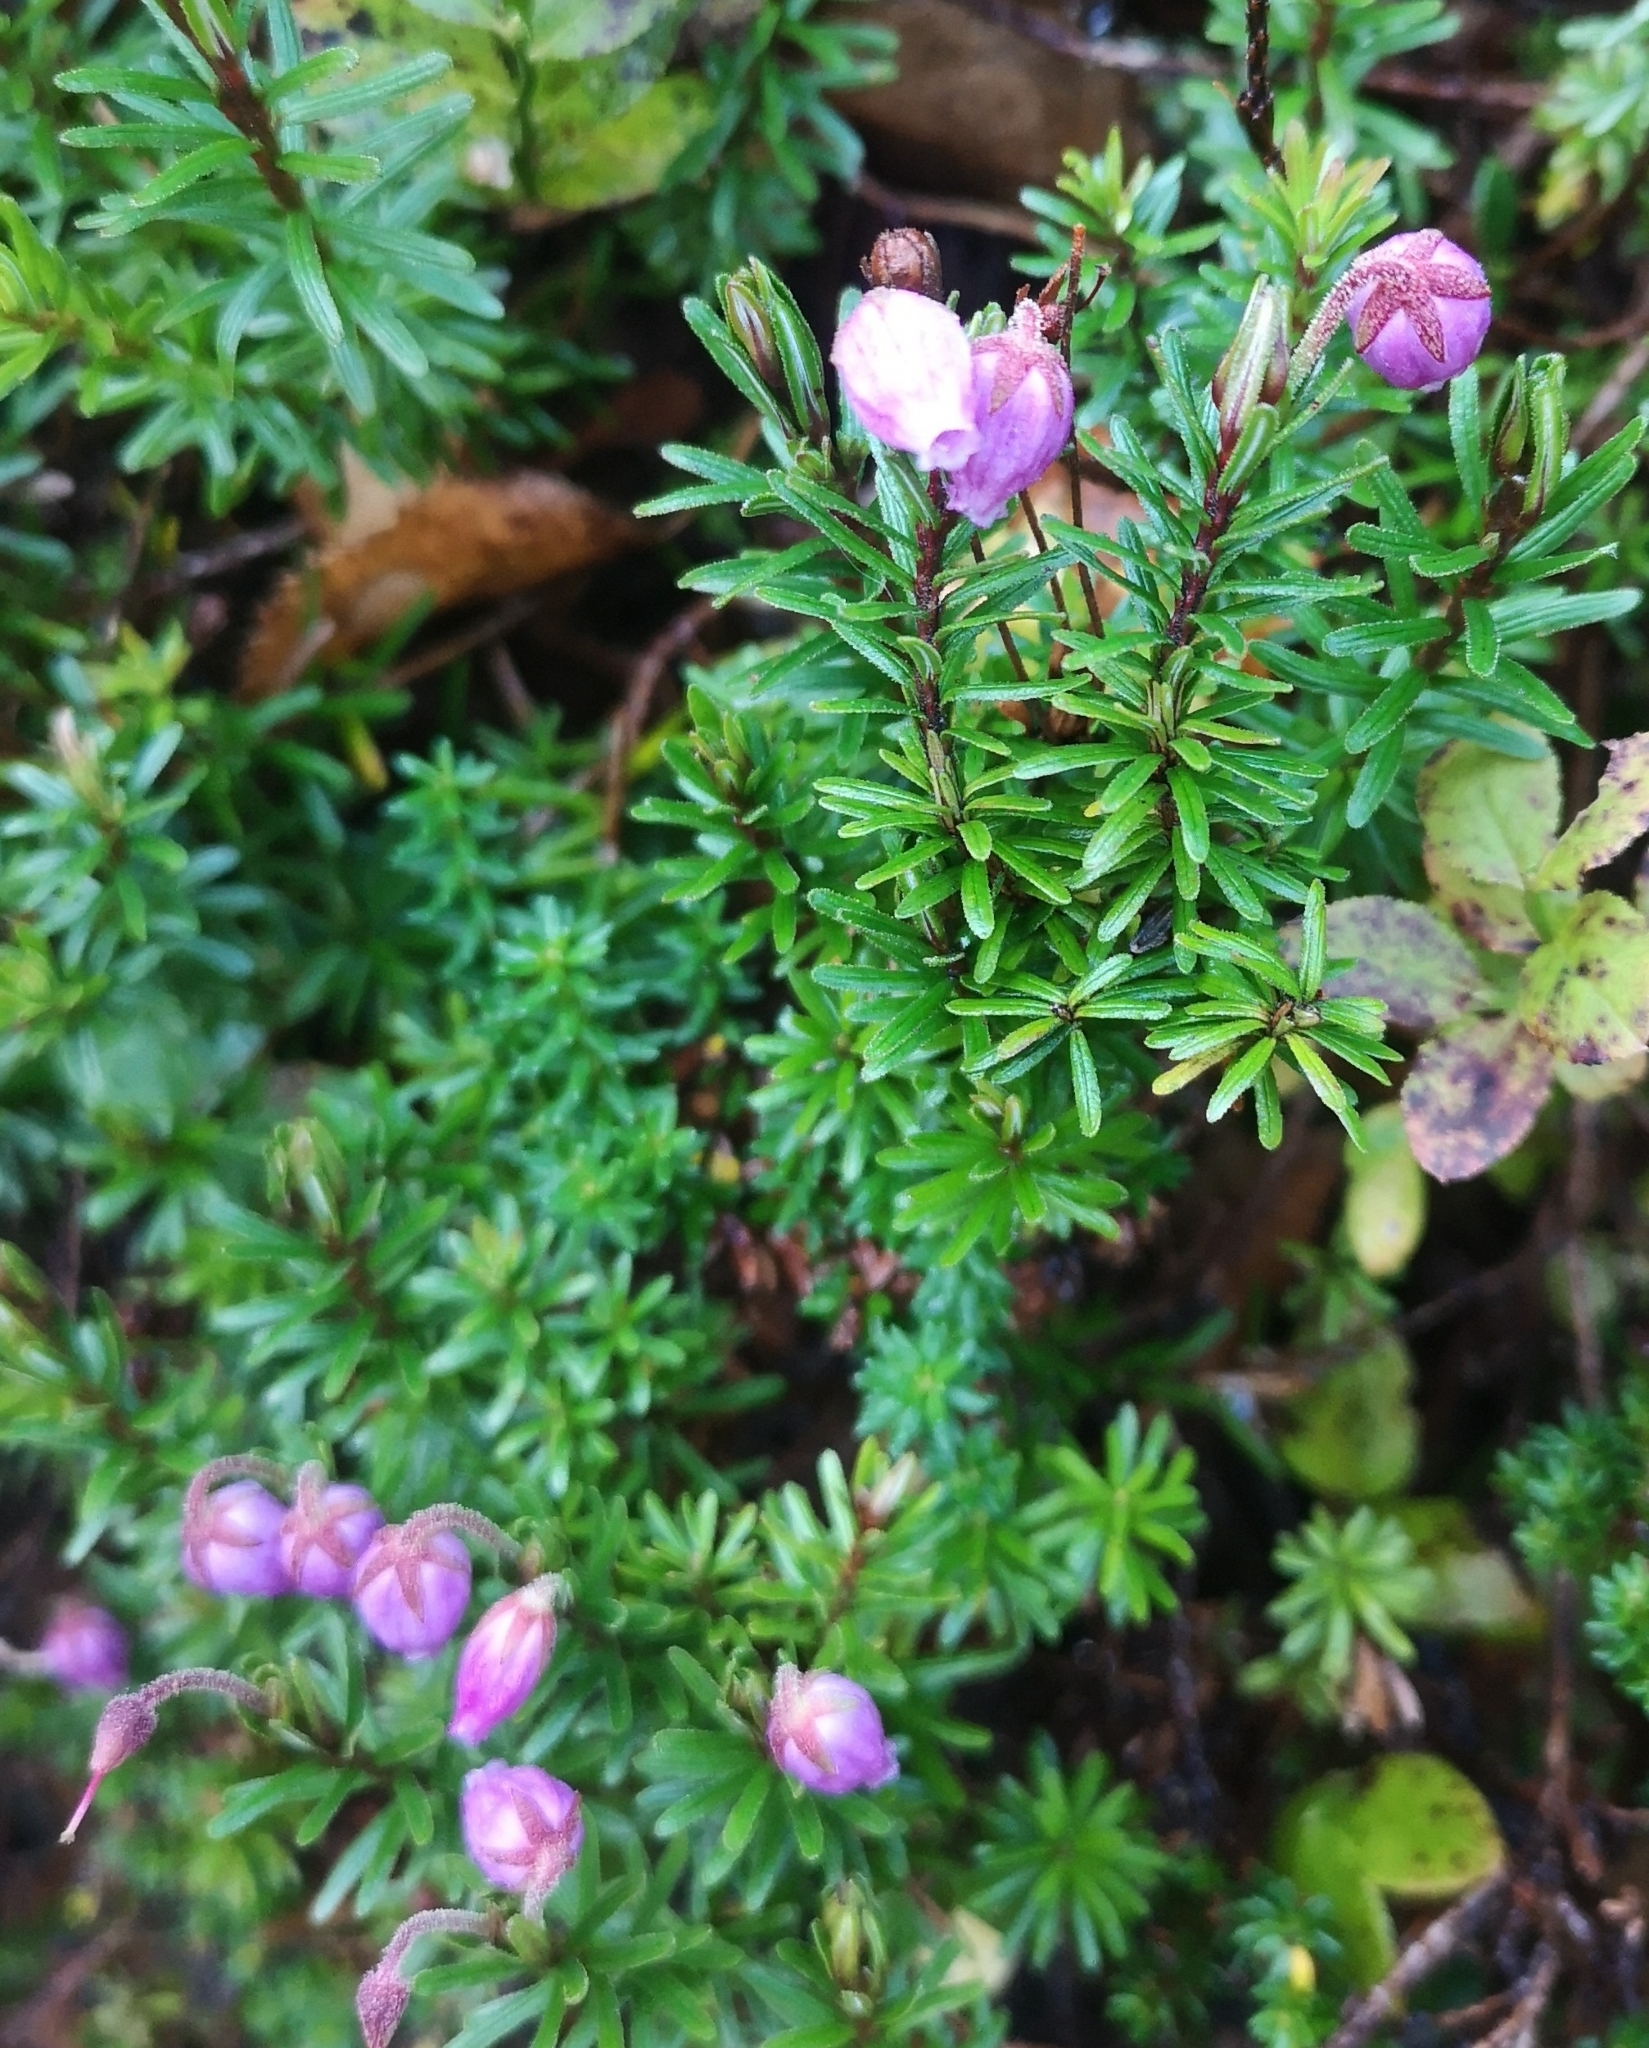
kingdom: Plantae
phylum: Tracheophyta
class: Magnoliopsida
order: Ericales
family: Ericaceae
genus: Phyllodoce
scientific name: Phyllodoce caerulea
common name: Blue heath
